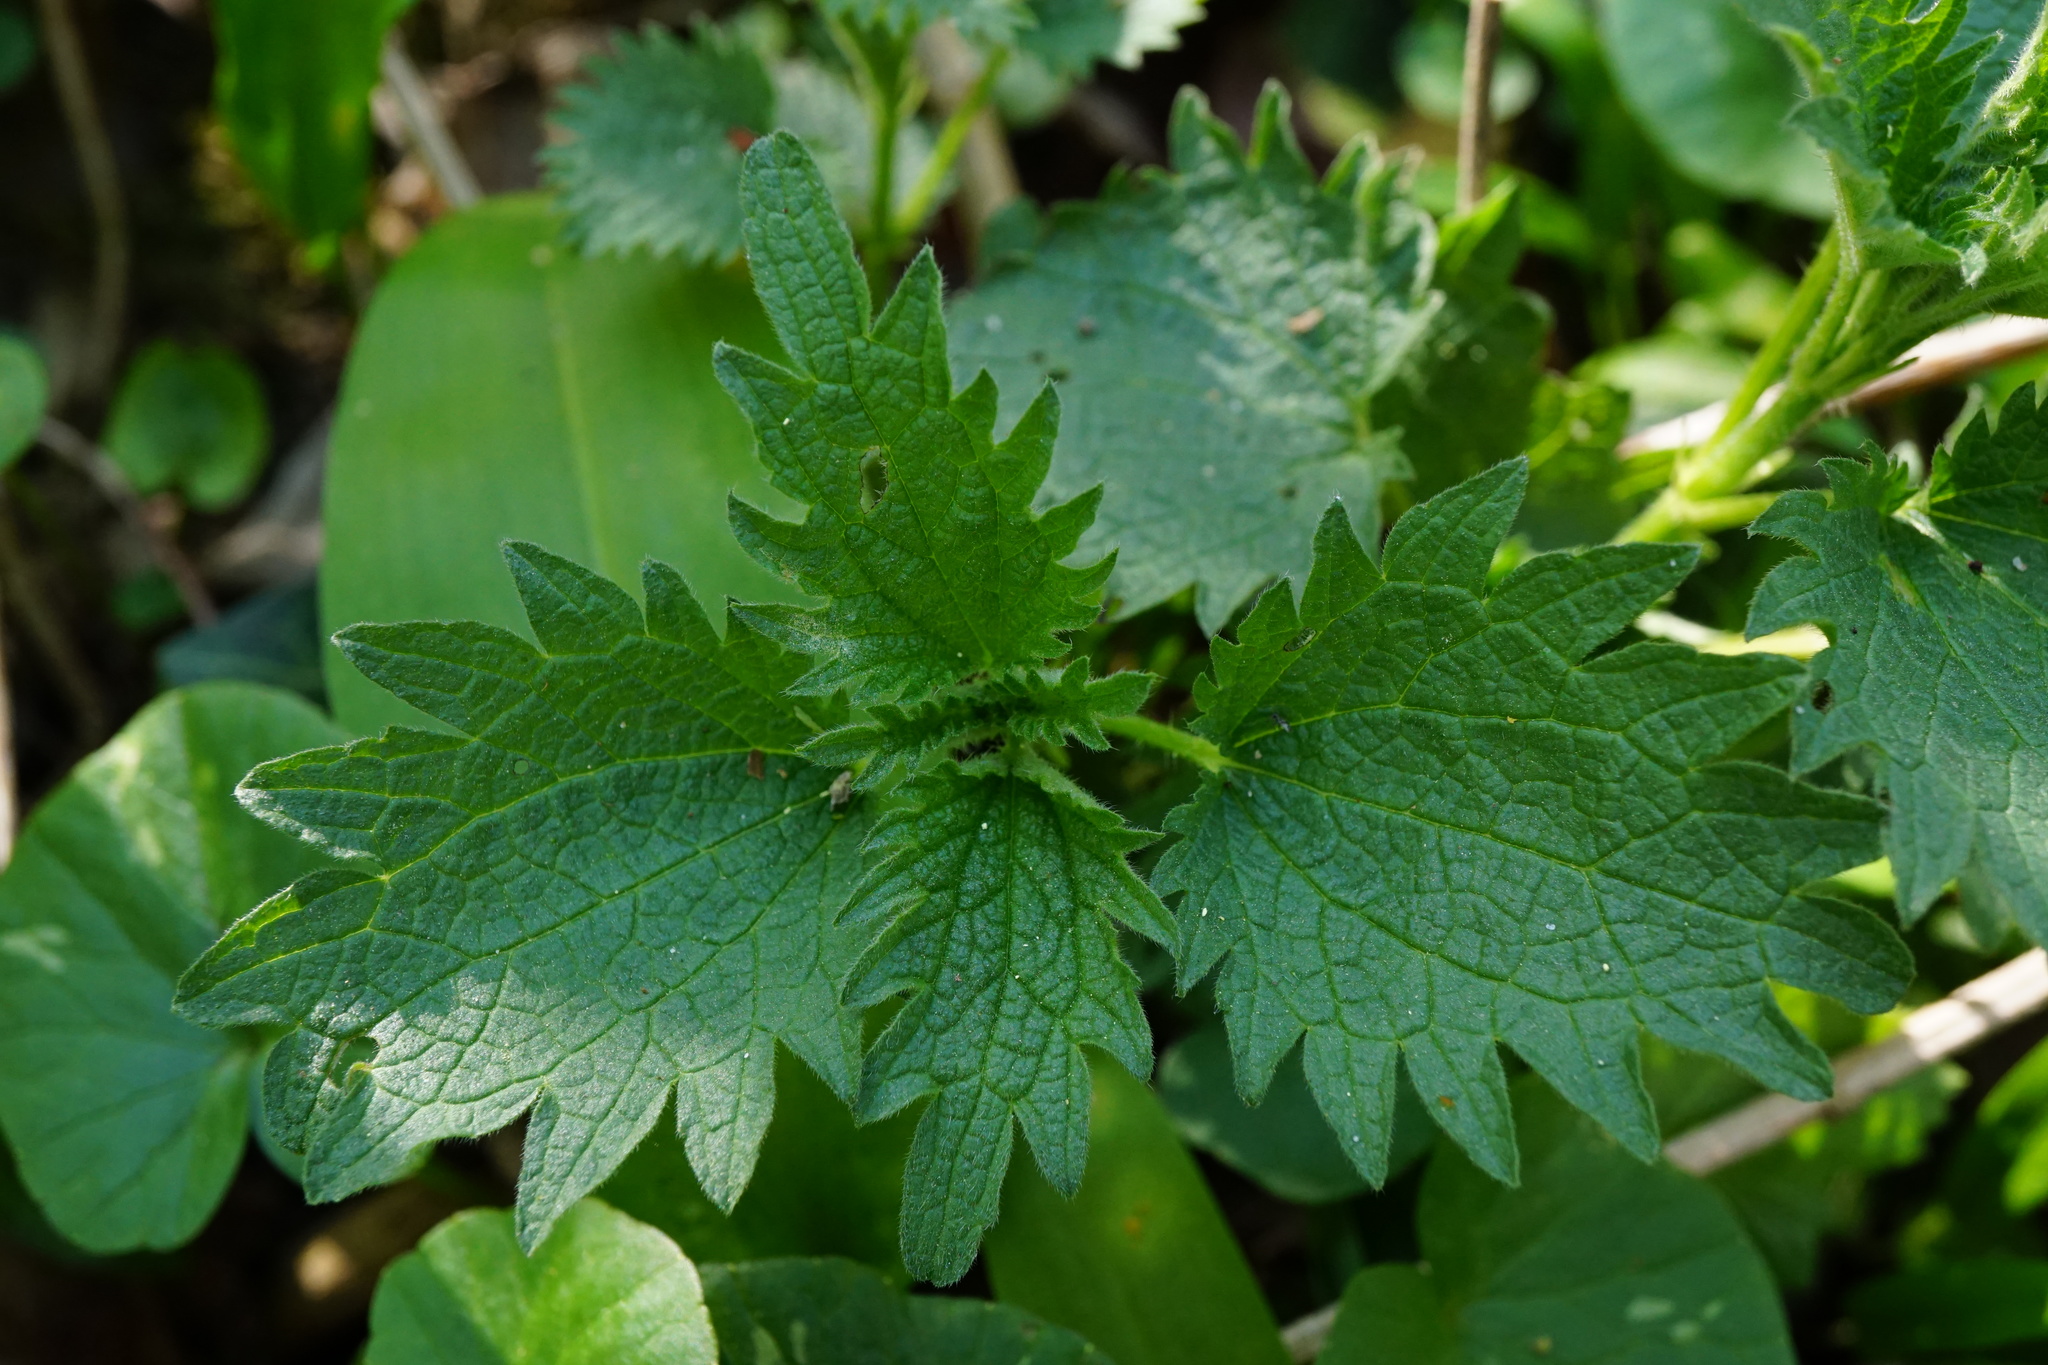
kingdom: Plantae
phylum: Tracheophyta
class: Magnoliopsida
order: Rosales
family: Urticaceae
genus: Urtica
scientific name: Urtica dioica
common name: Common nettle
